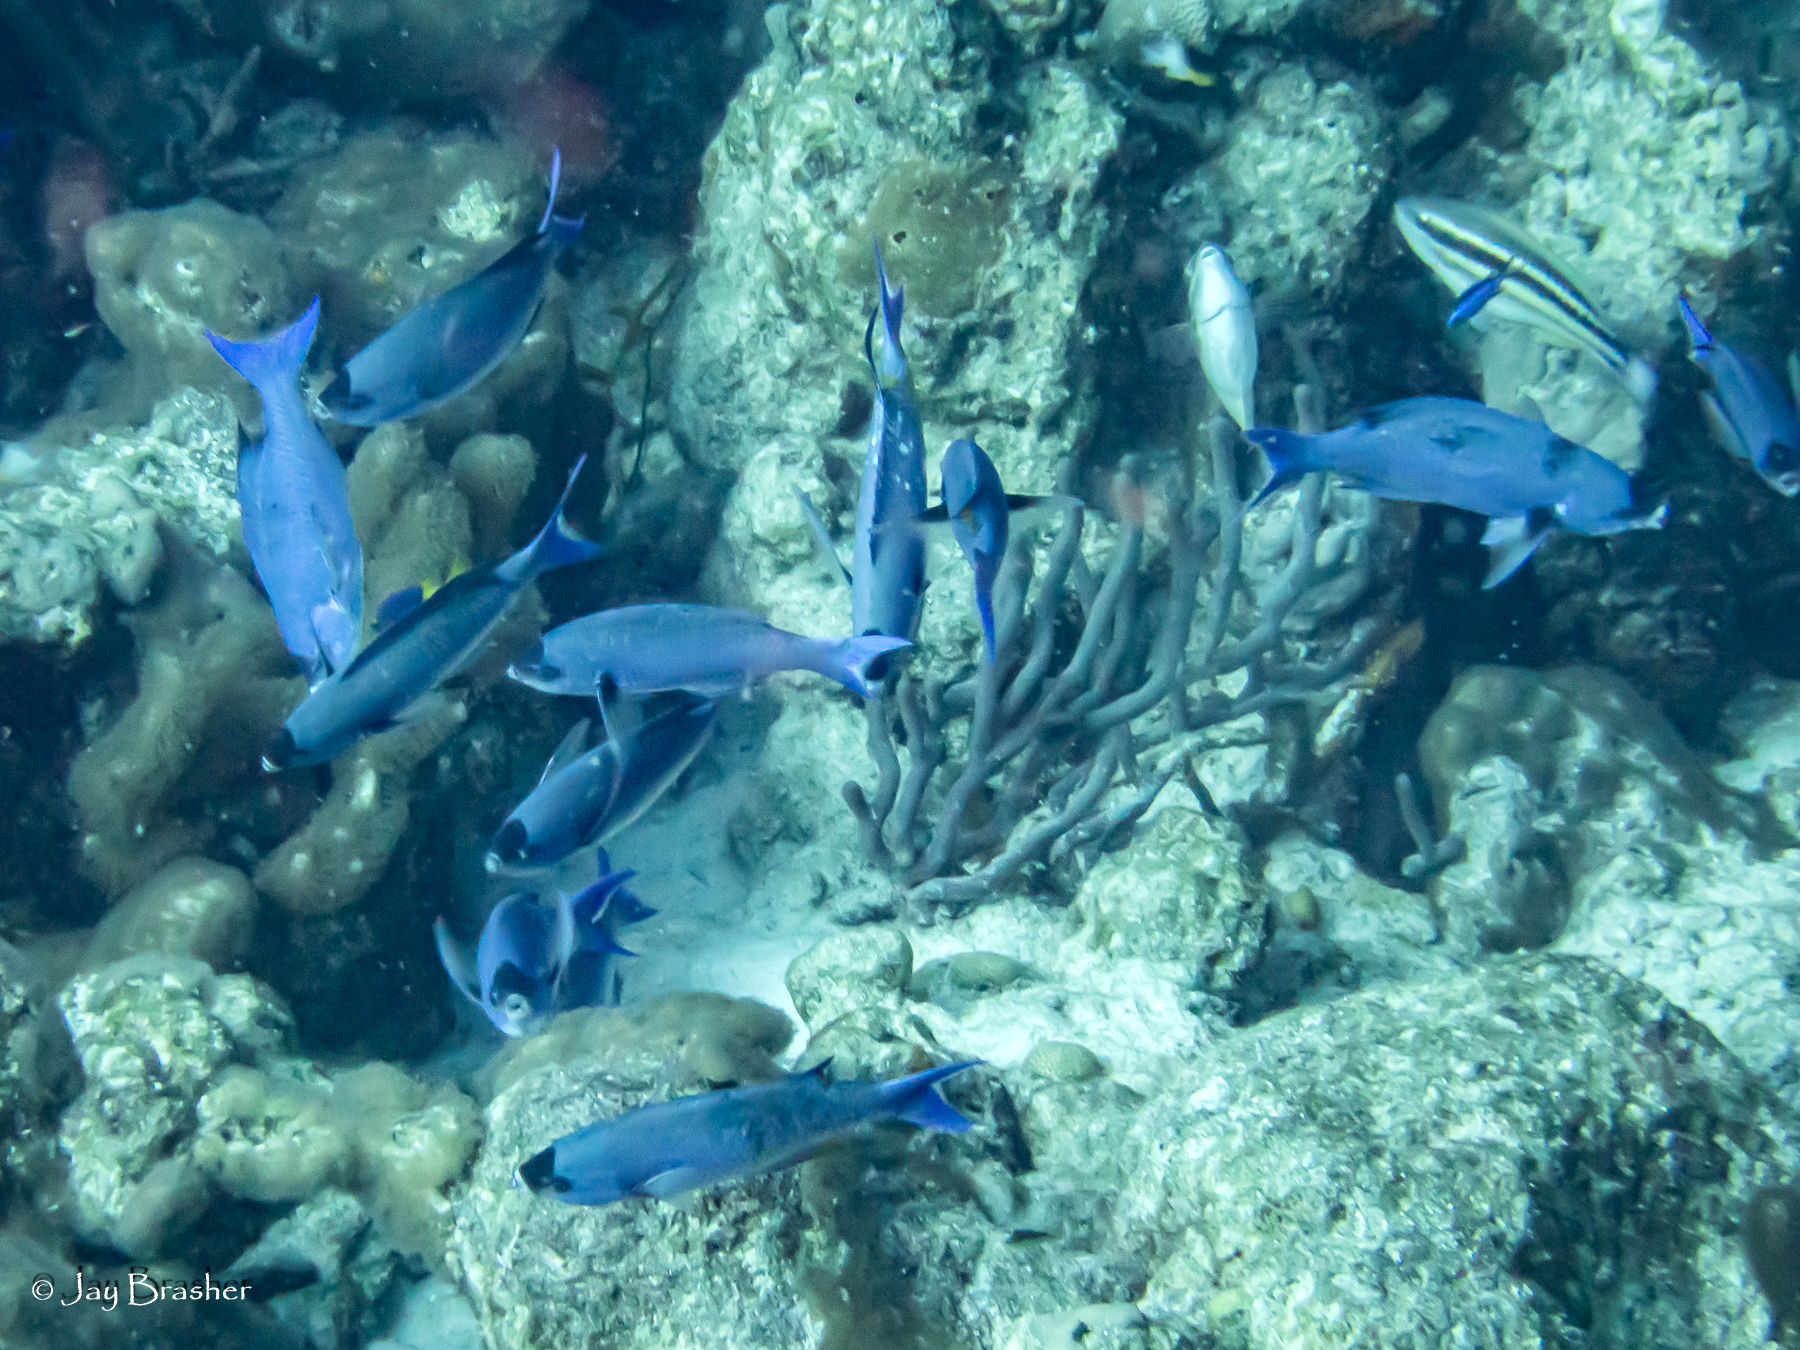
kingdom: Animalia
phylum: Chordata
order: Perciformes
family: Labridae
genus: Bodianus
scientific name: Bodianus
